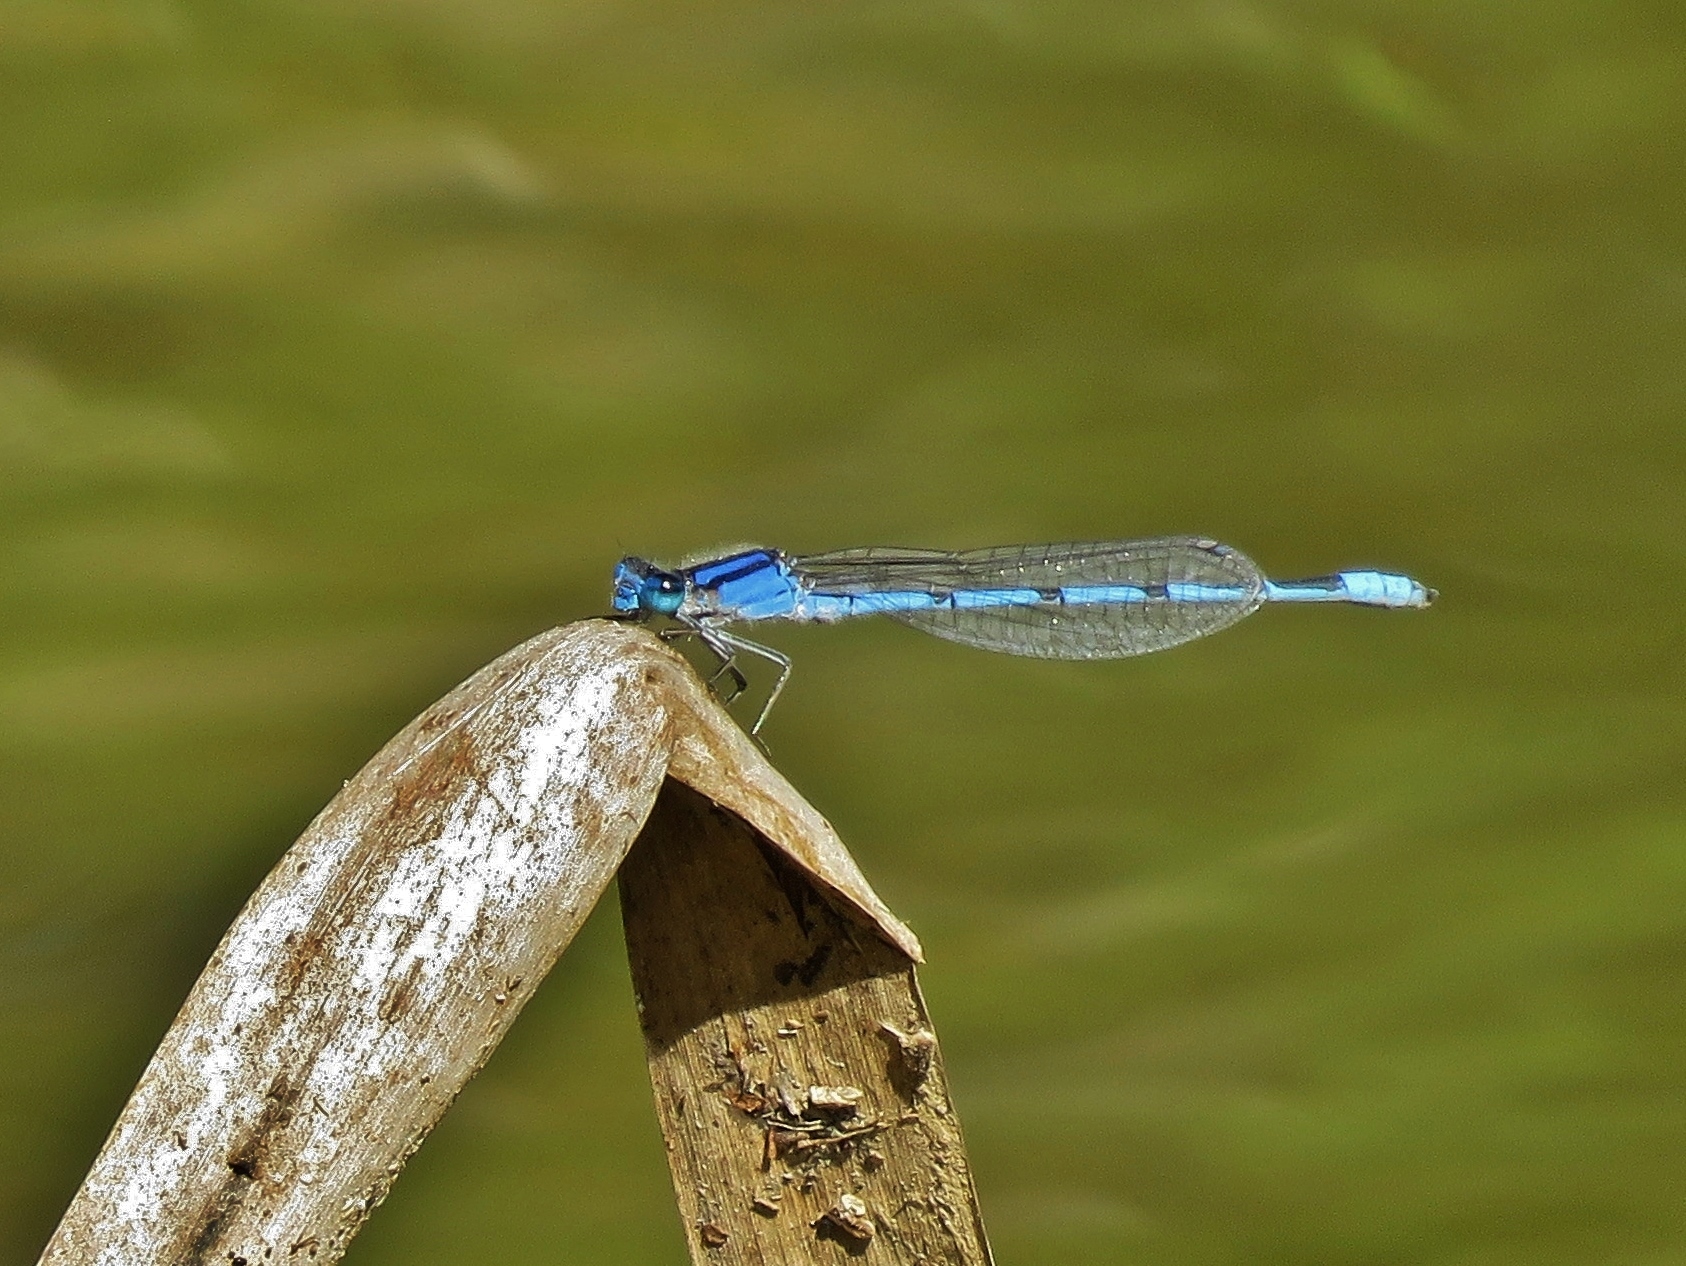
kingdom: Animalia
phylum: Arthropoda
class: Insecta
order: Odonata
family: Coenagrionidae
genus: Enallagma
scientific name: Enallagma civile
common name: Damselfly
